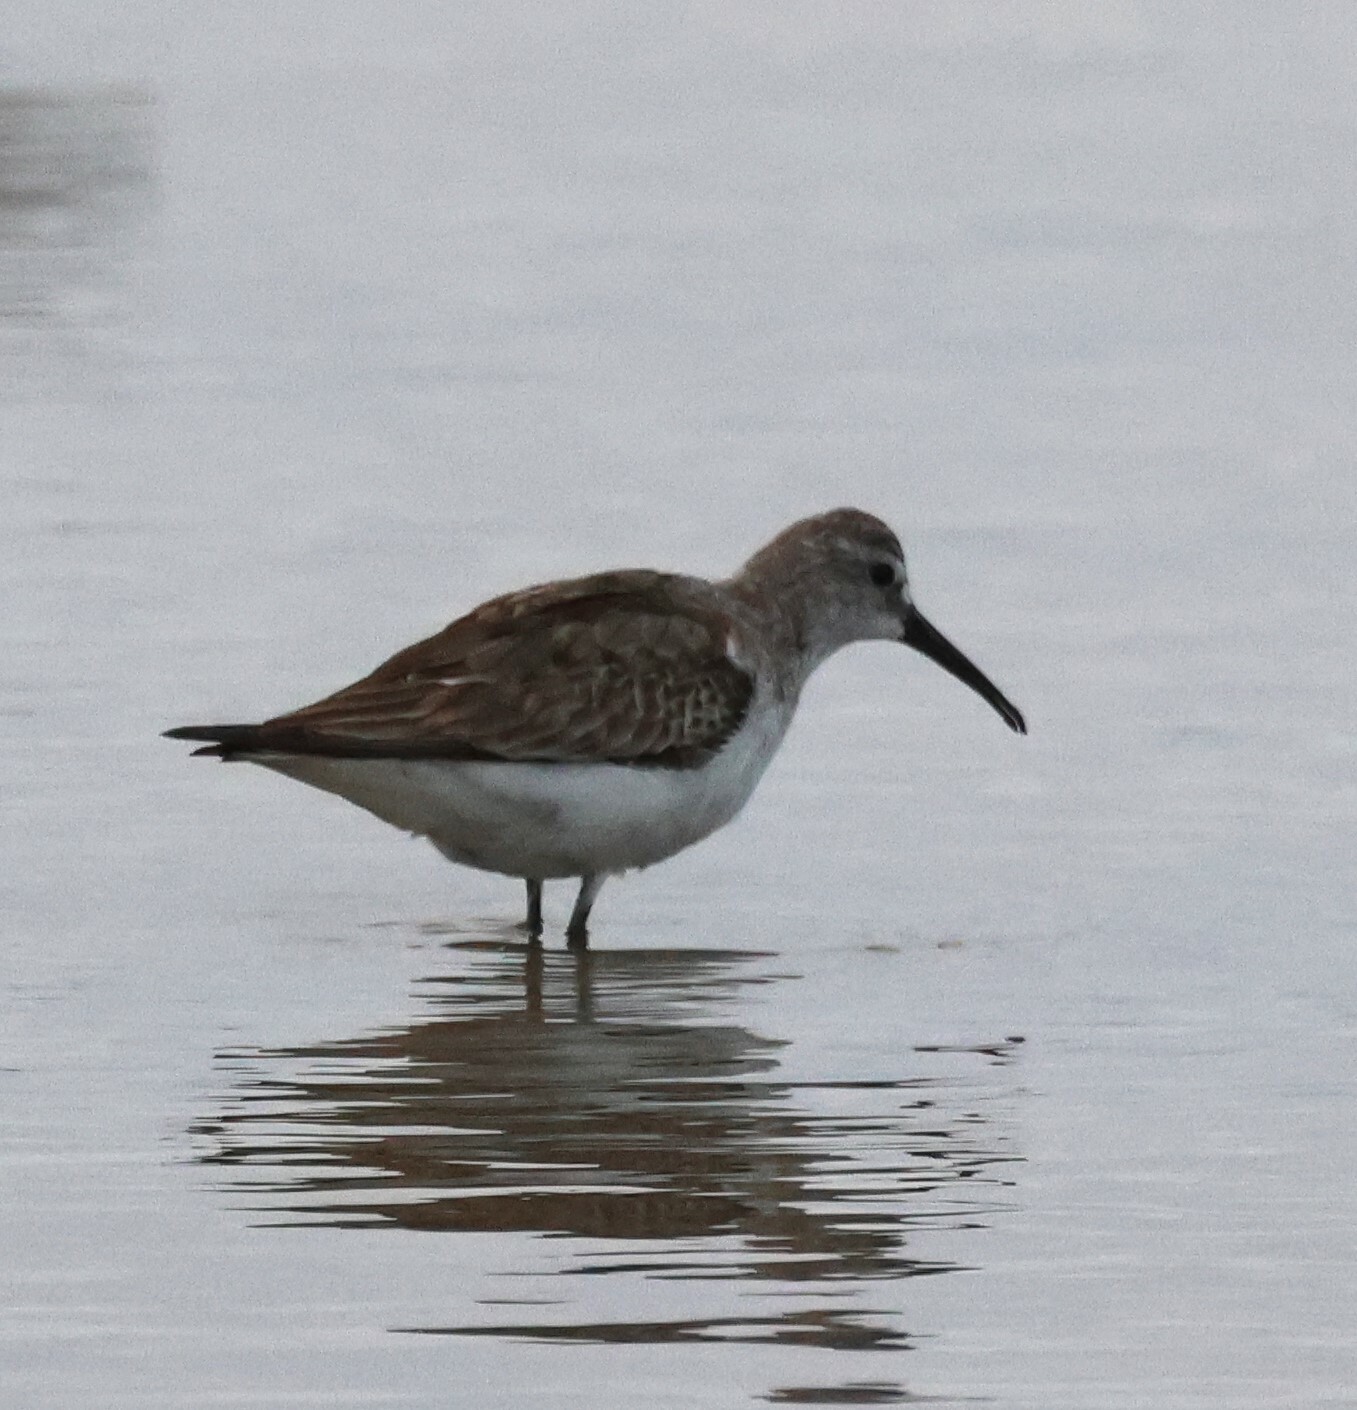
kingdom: Animalia
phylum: Chordata
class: Aves
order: Charadriiformes
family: Scolopacidae
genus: Calidris
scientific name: Calidris ferruginea
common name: Curlew sandpiper
